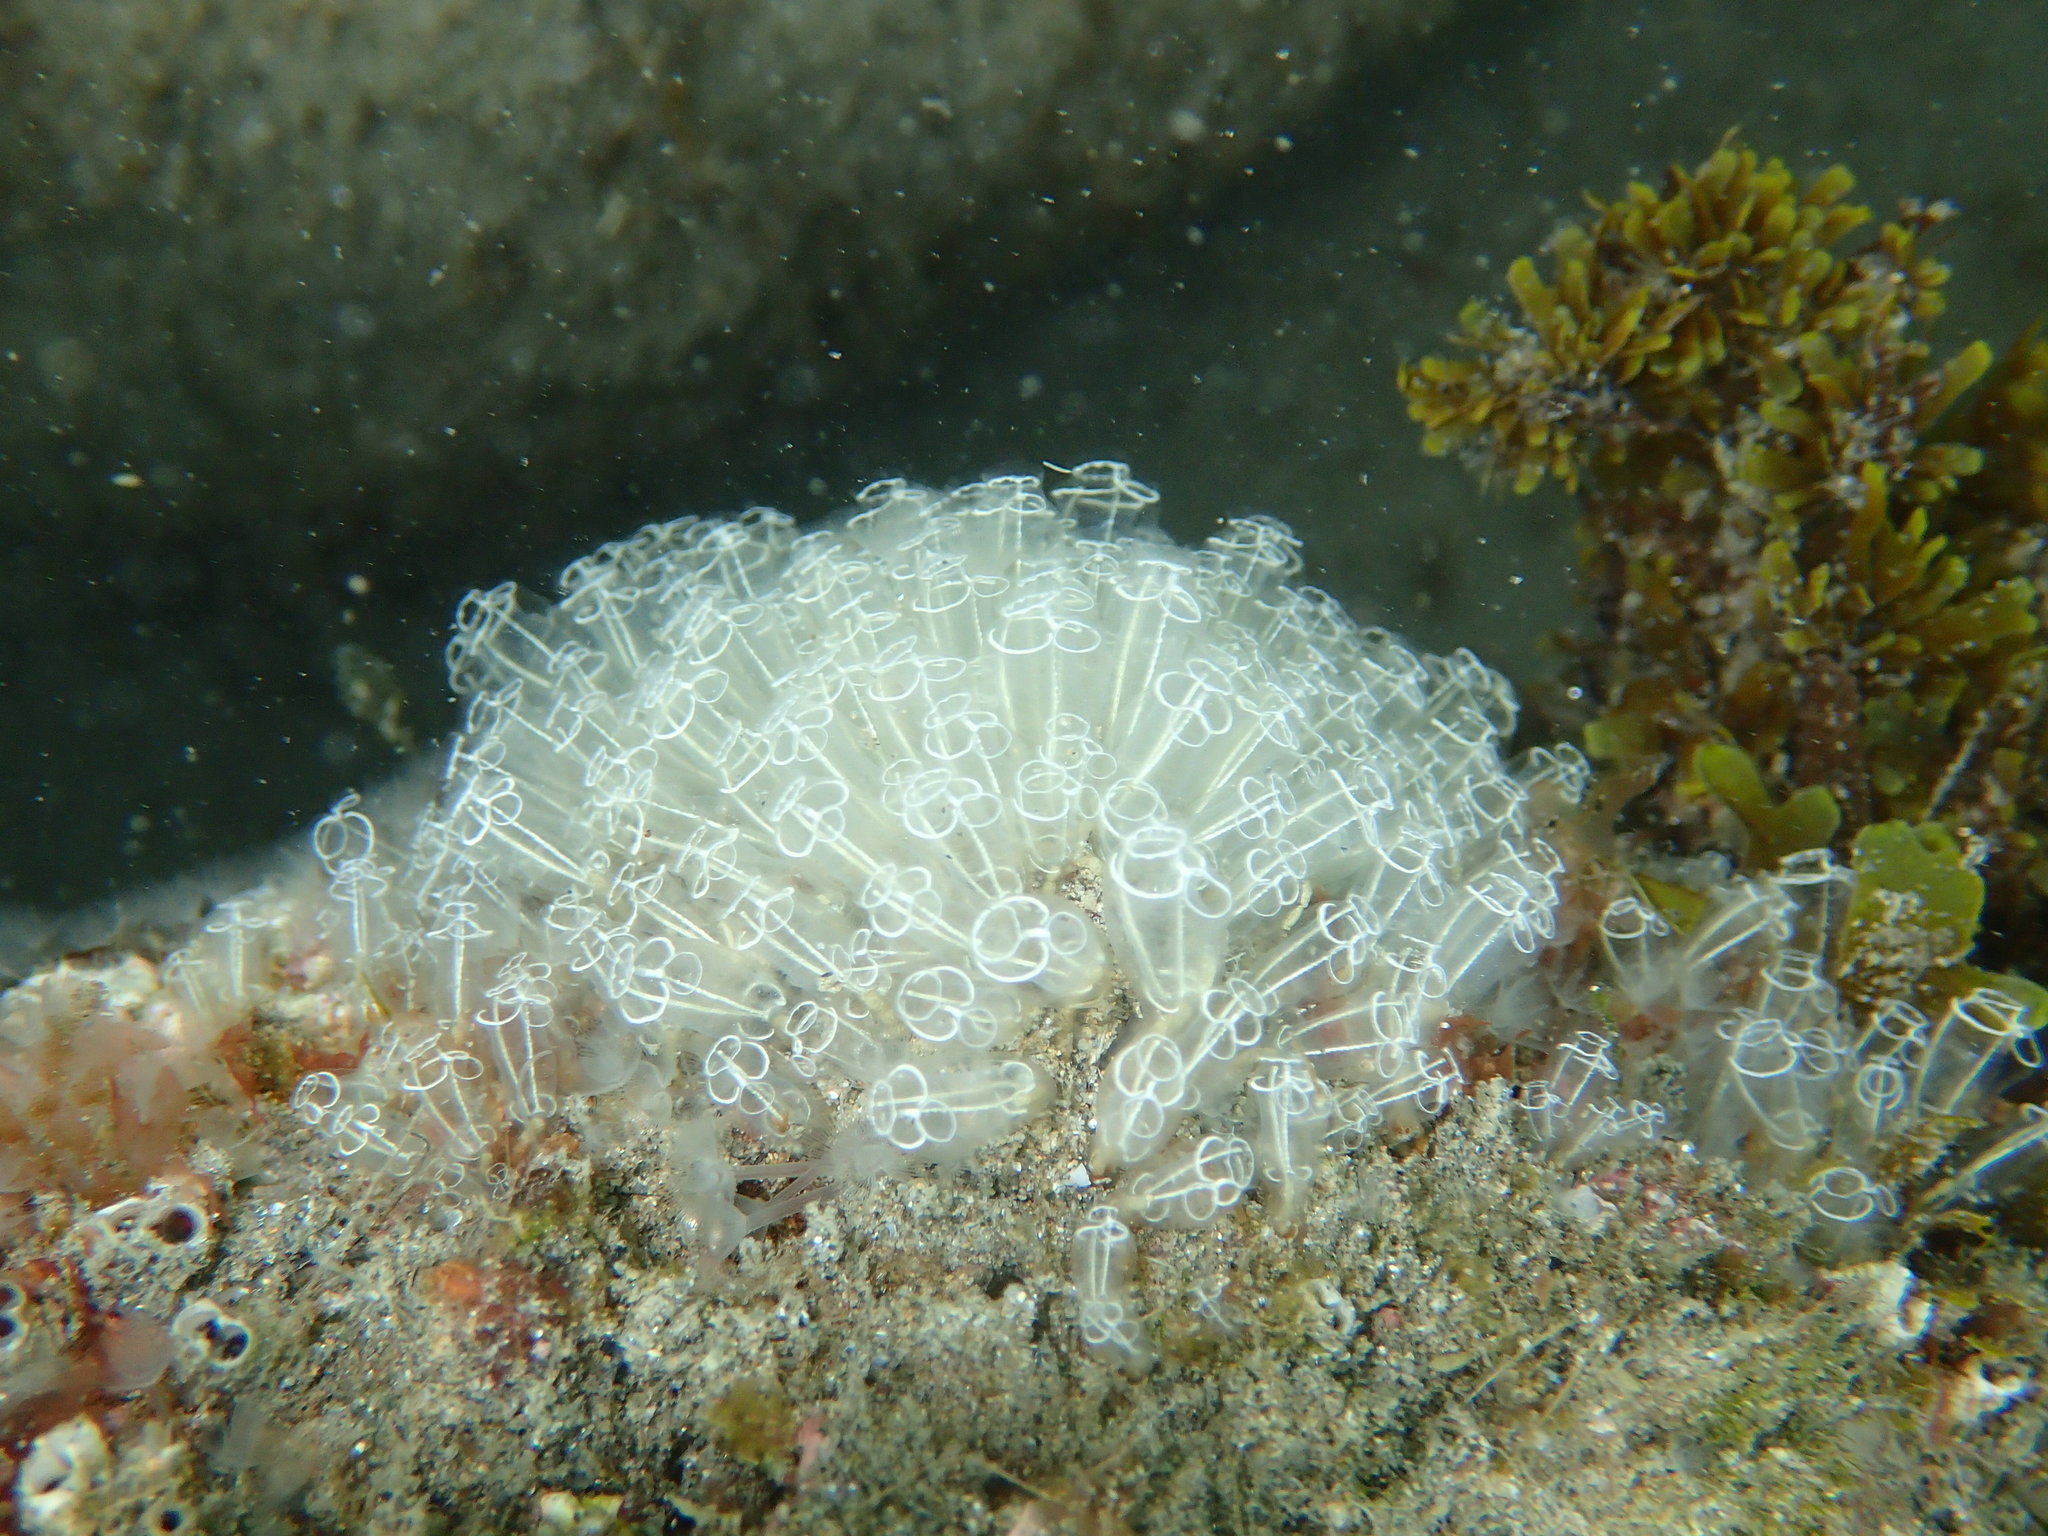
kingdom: Animalia
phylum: Chordata
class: Ascidiacea
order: Aplousobranchia
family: Clavelinidae
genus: Clavelina
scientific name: Clavelina lepadiformis
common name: Light bulb tunicate
